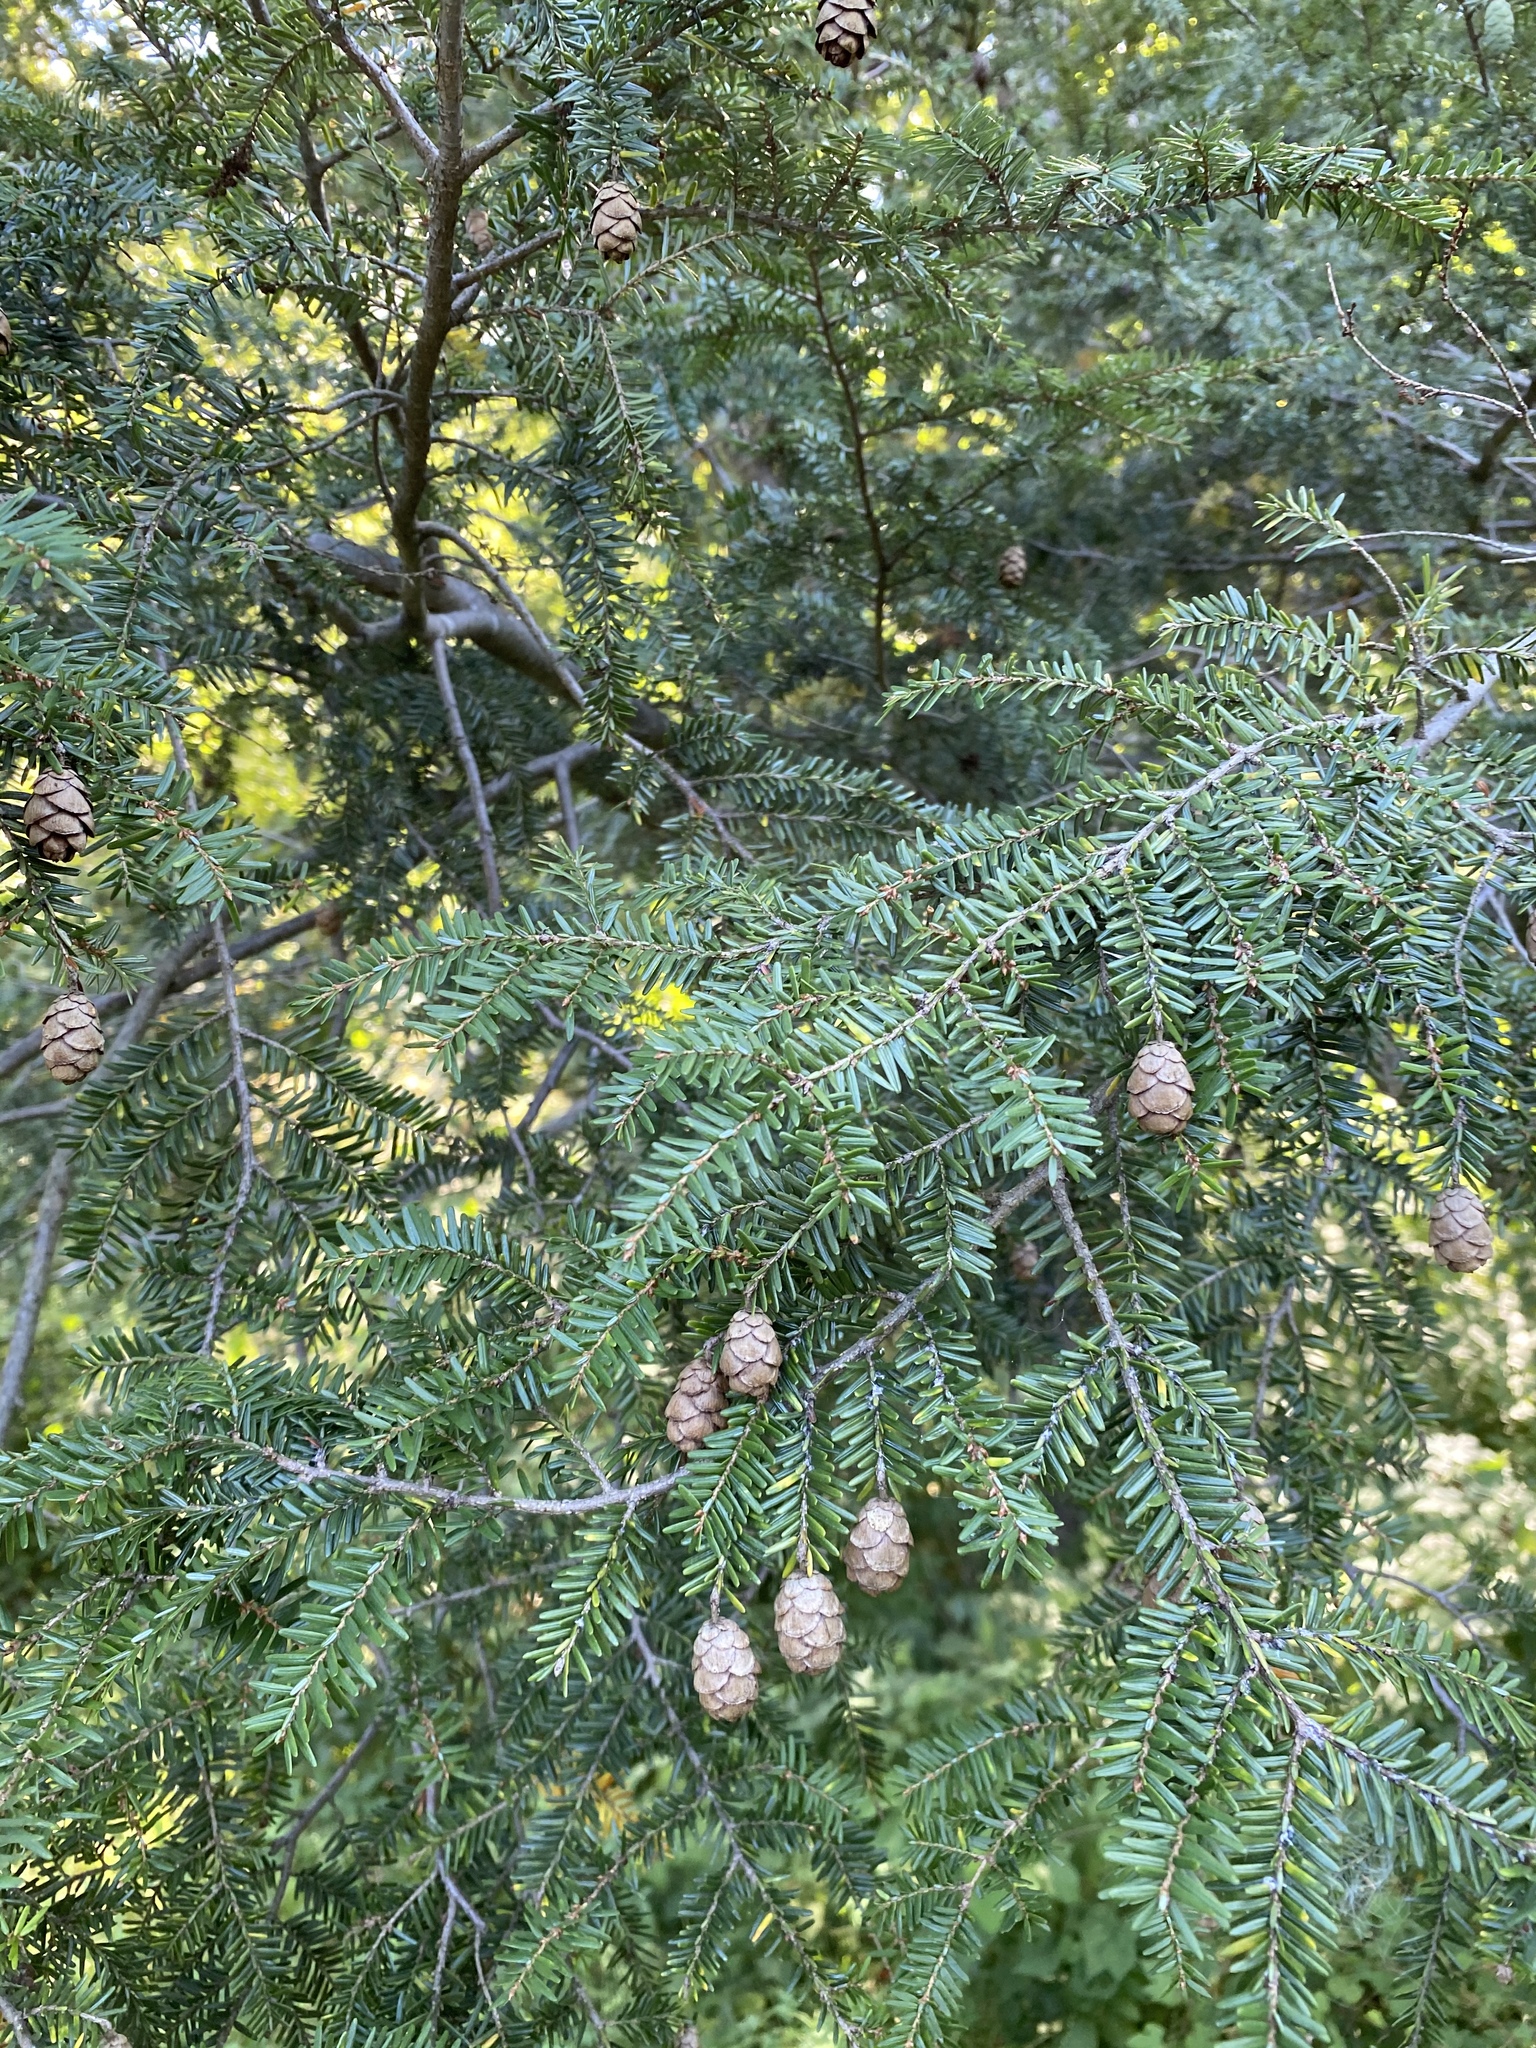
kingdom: Plantae
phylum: Tracheophyta
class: Pinopsida
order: Pinales
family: Pinaceae
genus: Tsuga
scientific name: Tsuga canadensis
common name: Eastern hemlock
